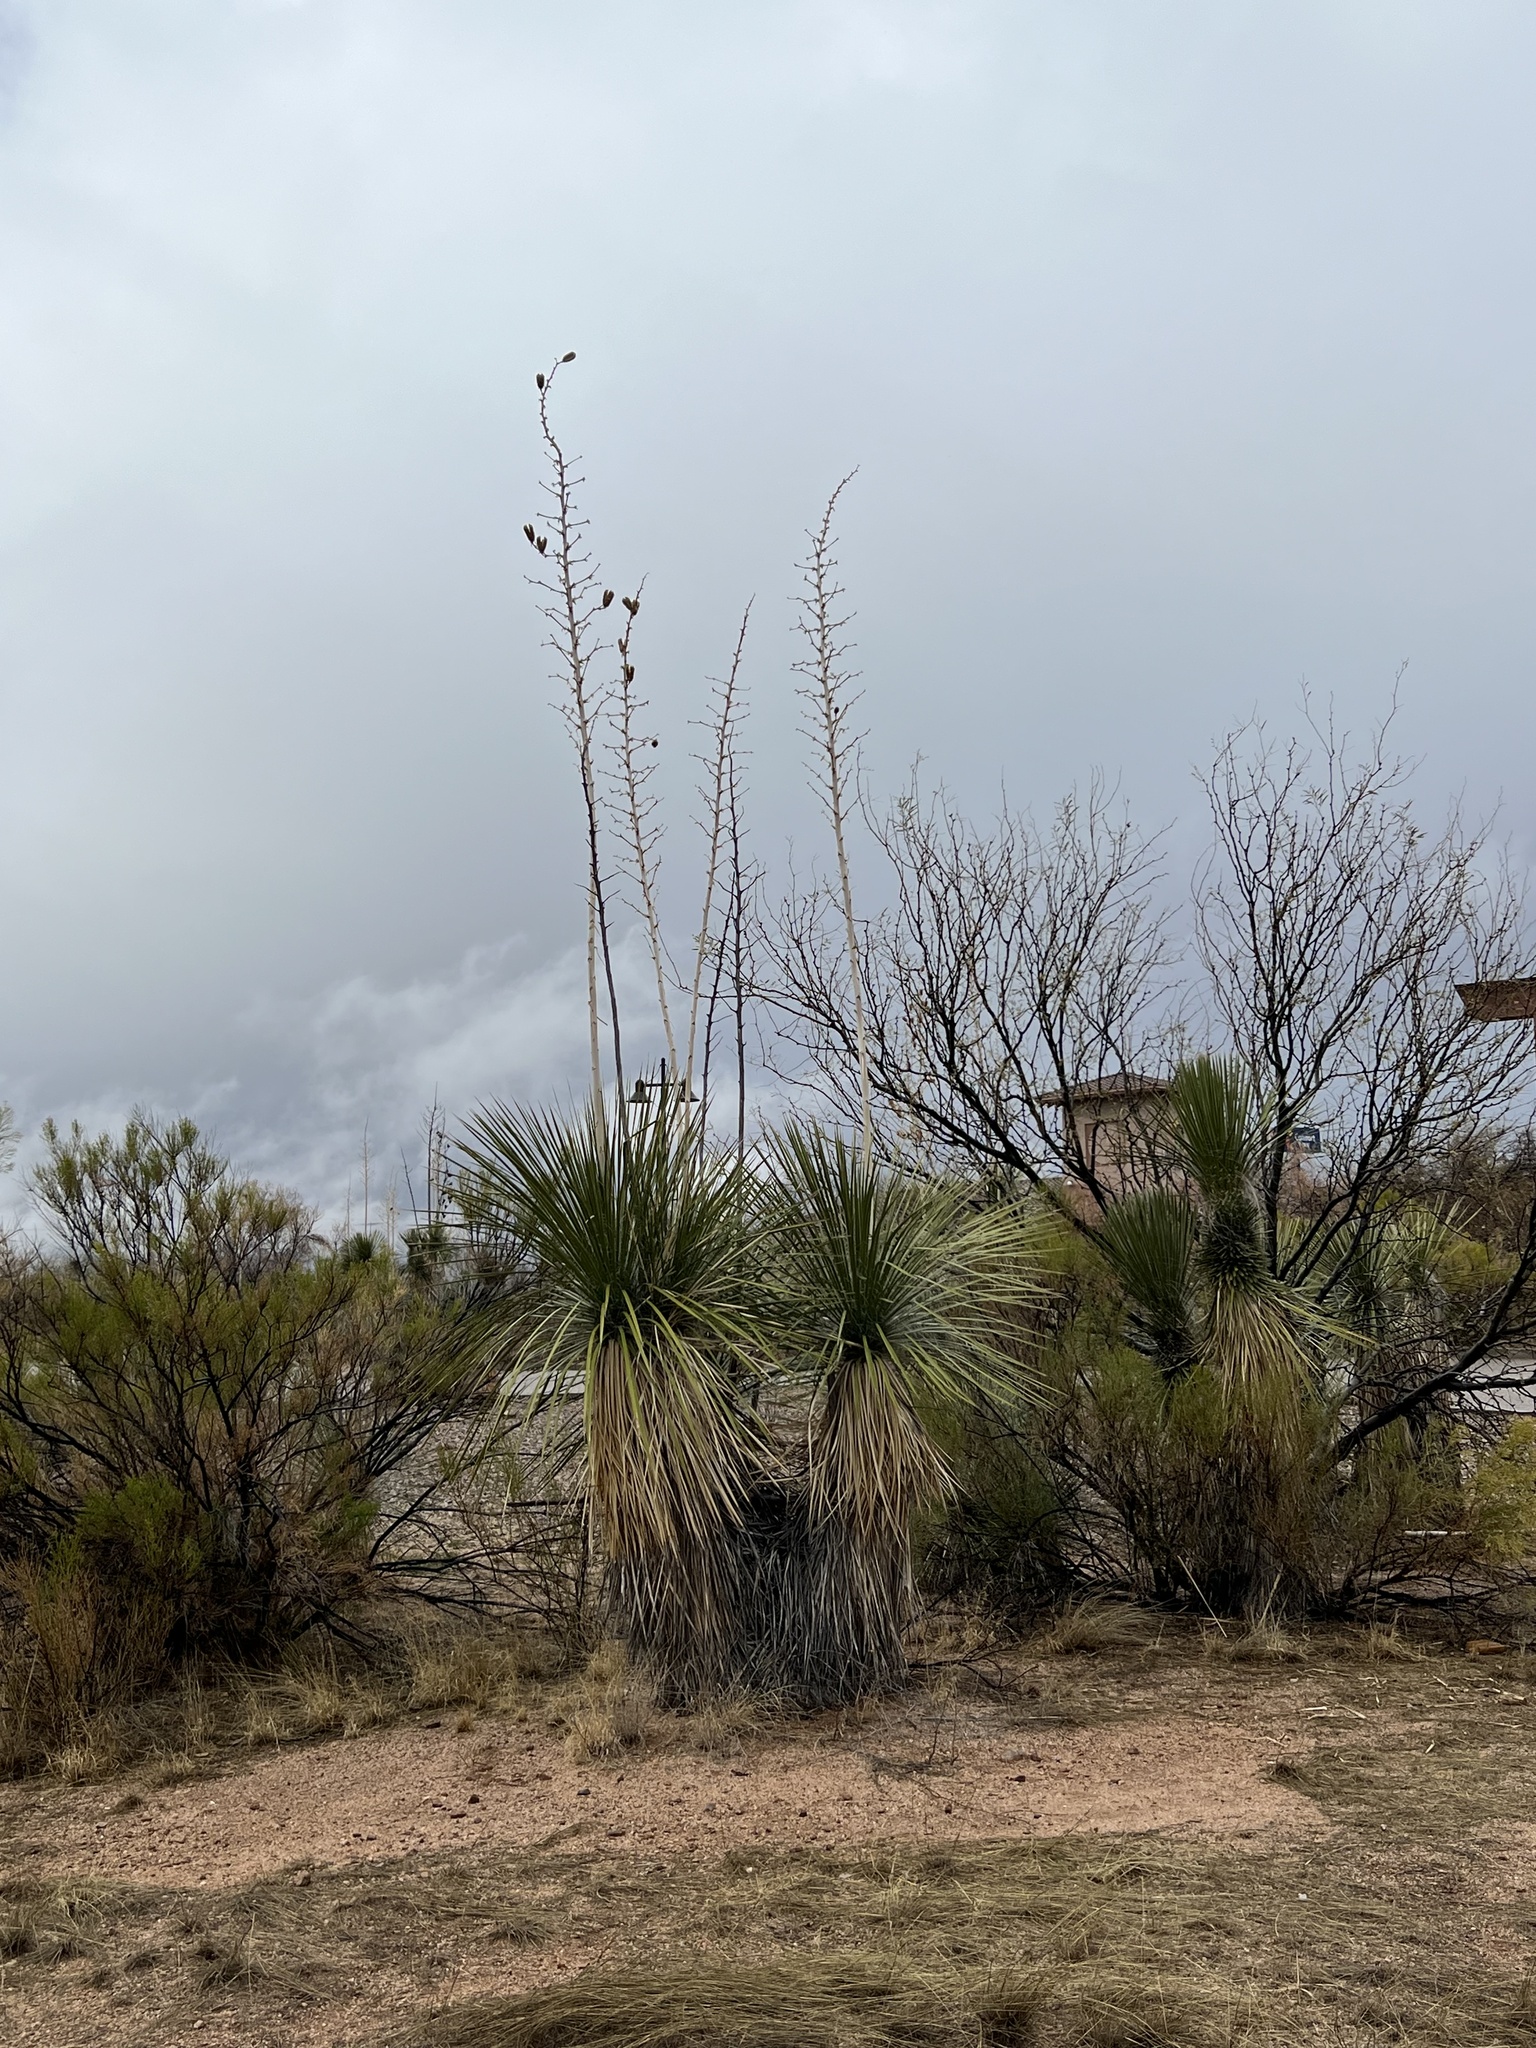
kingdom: Plantae
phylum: Tracheophyta
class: Liliopsida
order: Asparagales
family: Asparagaceae
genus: Yucca
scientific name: Yucca elata
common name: Palmella
